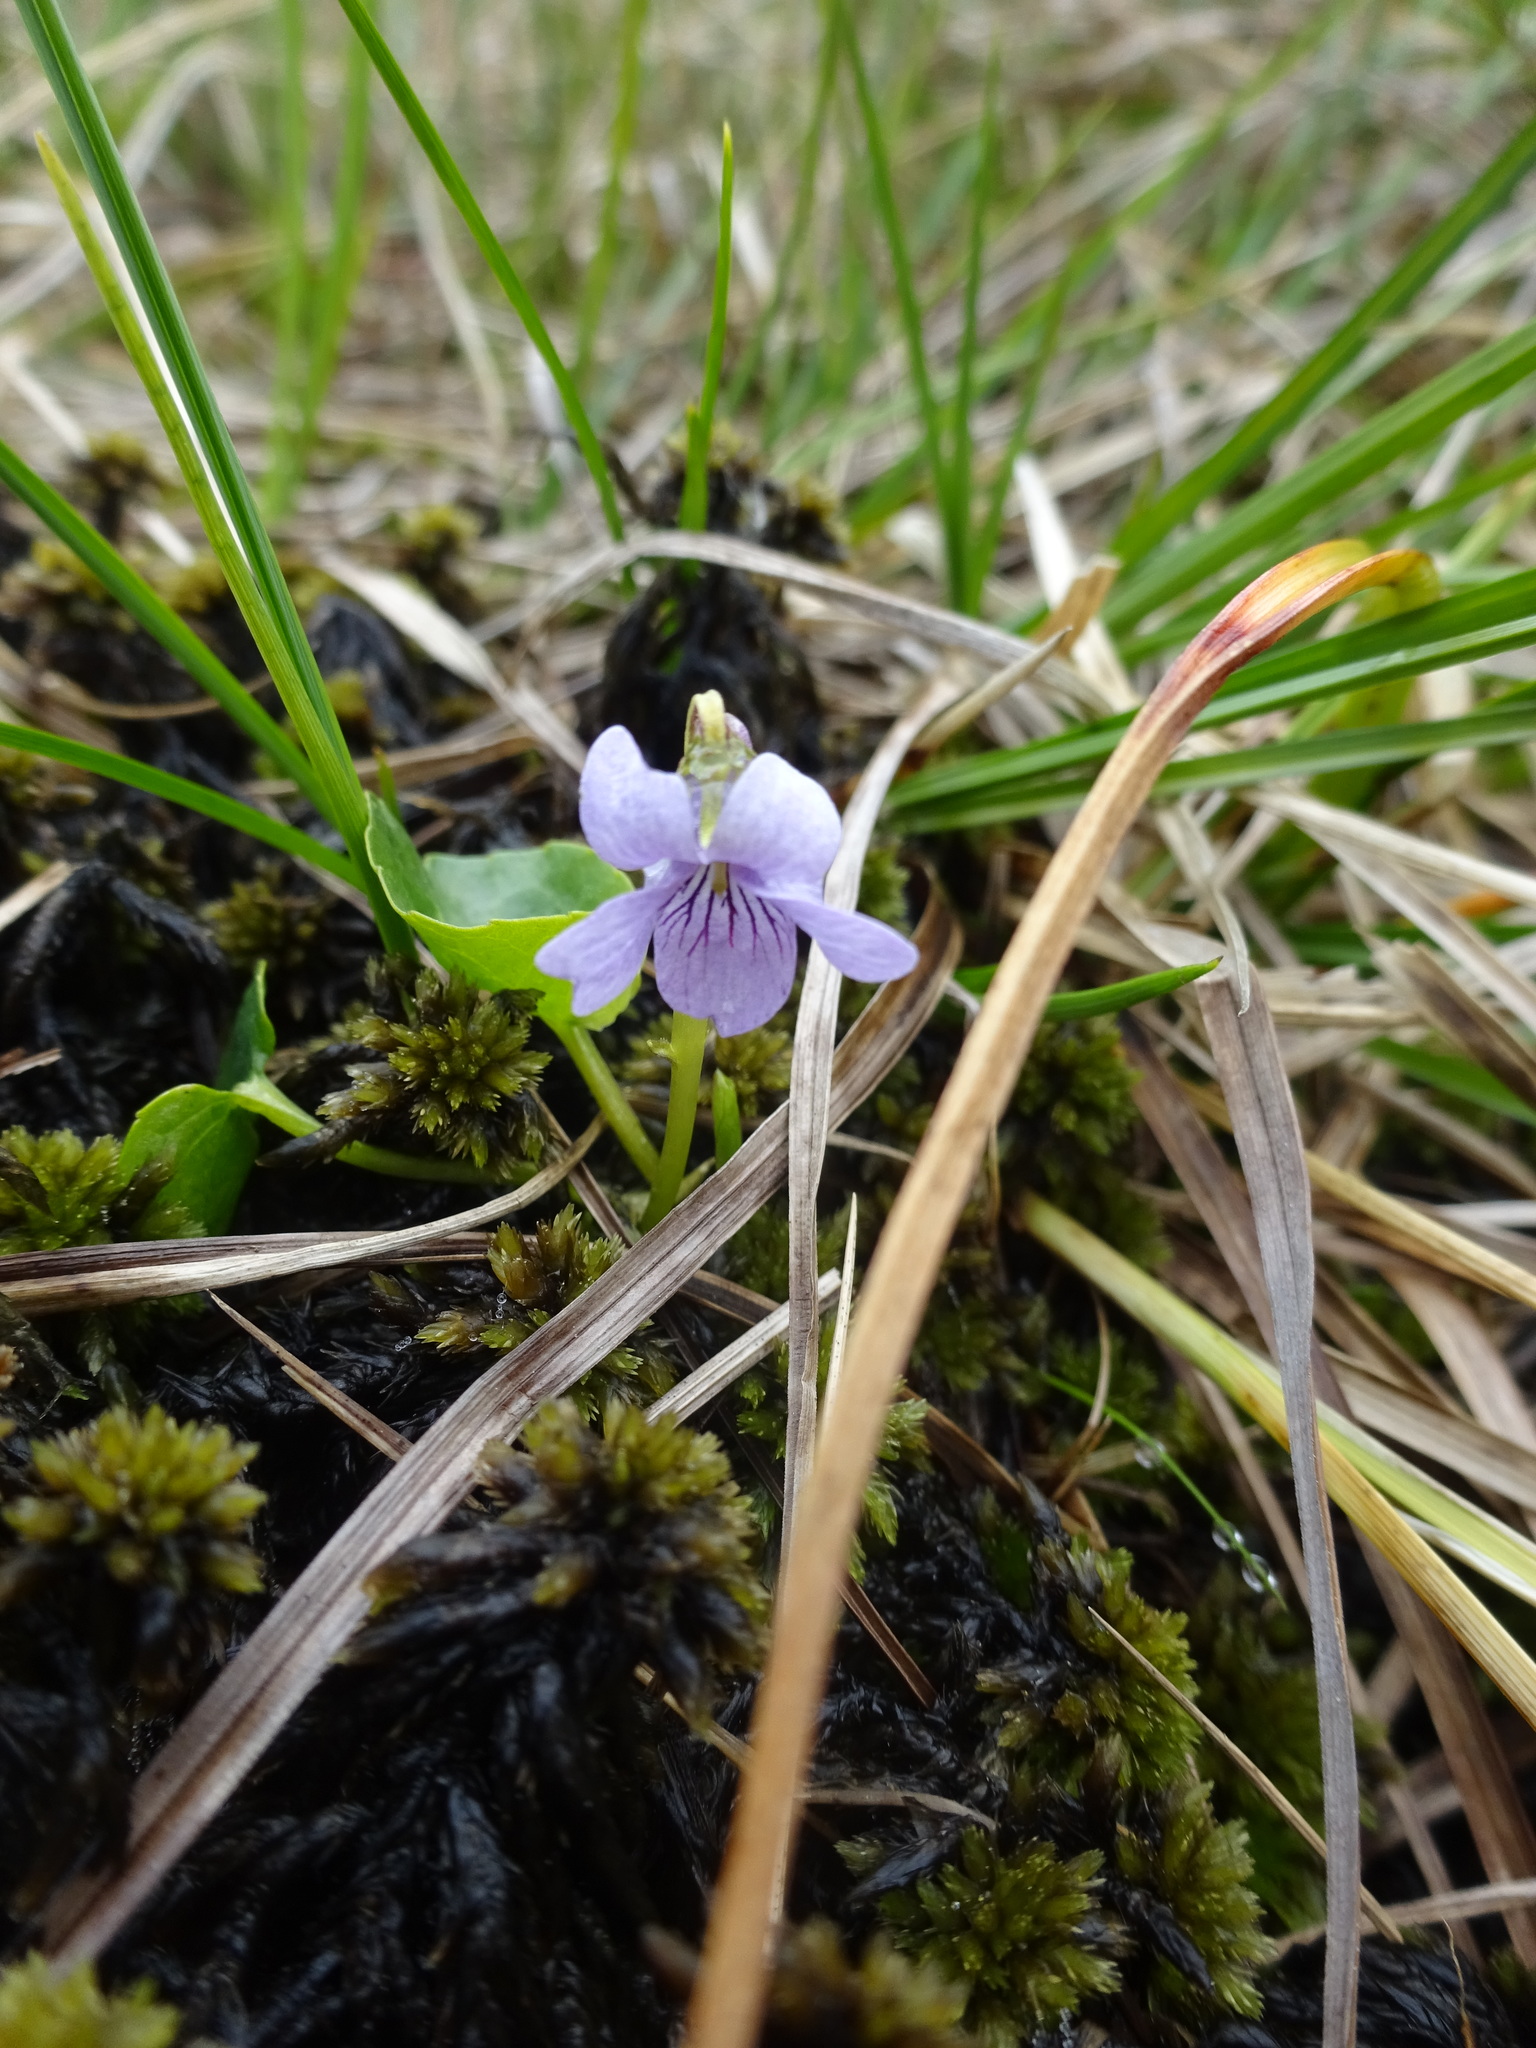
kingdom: Plantae
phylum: Tracheophyta
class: Magnoliopsida
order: Malpighiales
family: Violaceae
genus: Viola
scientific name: Viola palustris
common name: Marsh violet
